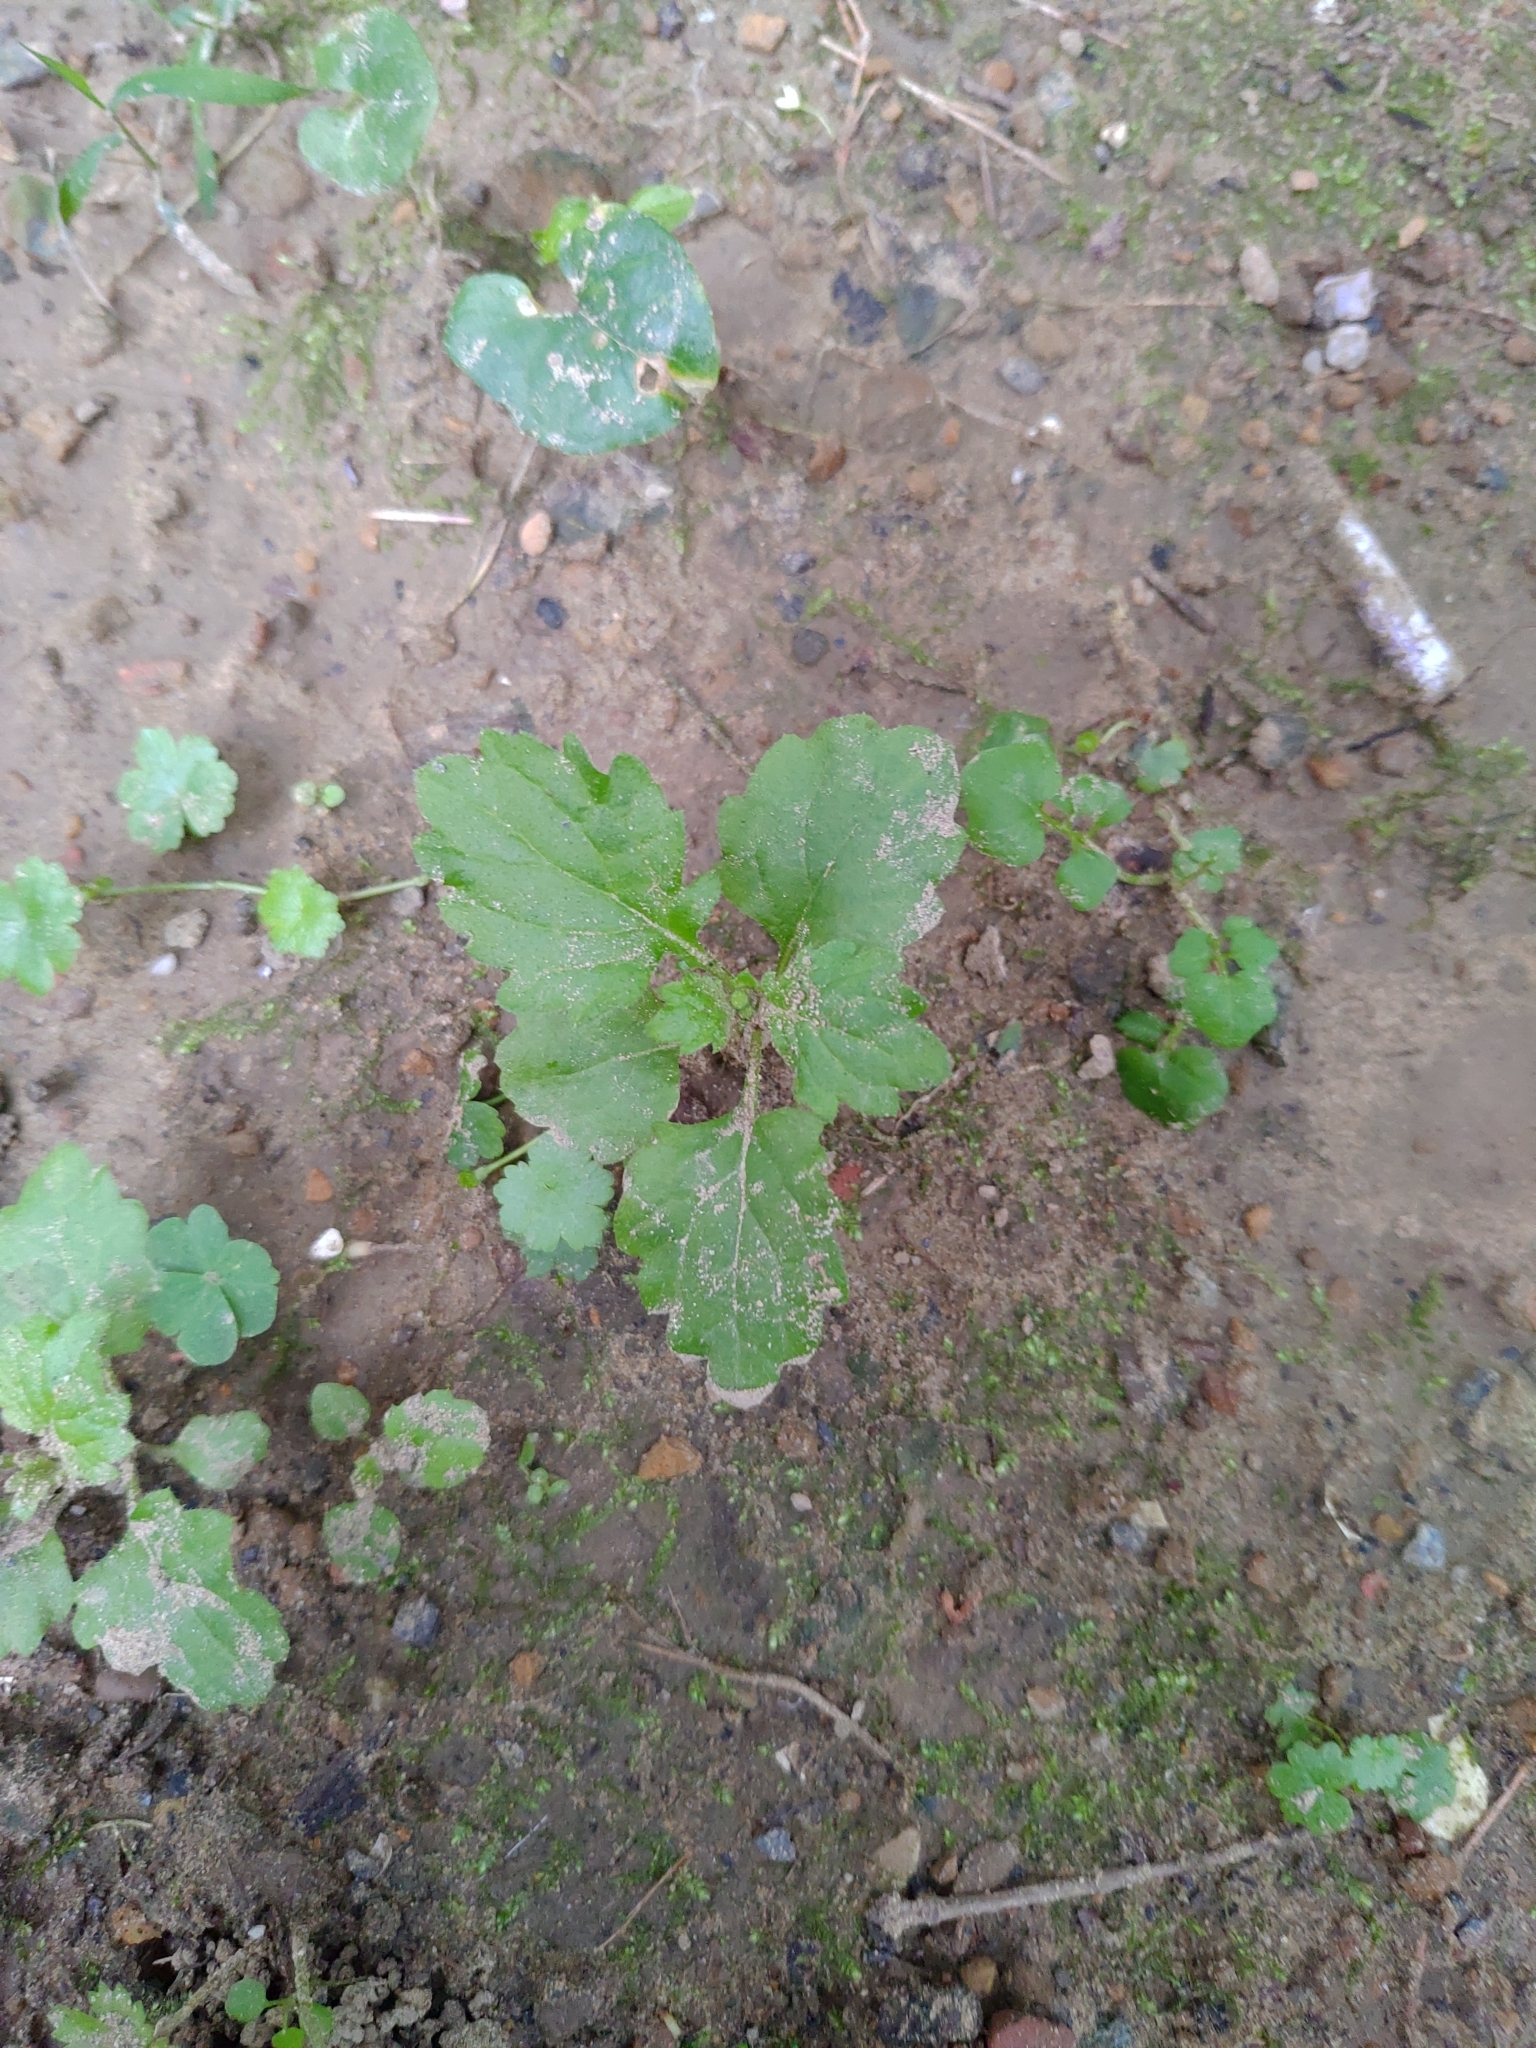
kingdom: Plantae
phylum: Tracheophyta
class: Magnoliopsida
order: Asterales
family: Asteraceae
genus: Dichrocephala
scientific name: Dichrocephala integrifolia
